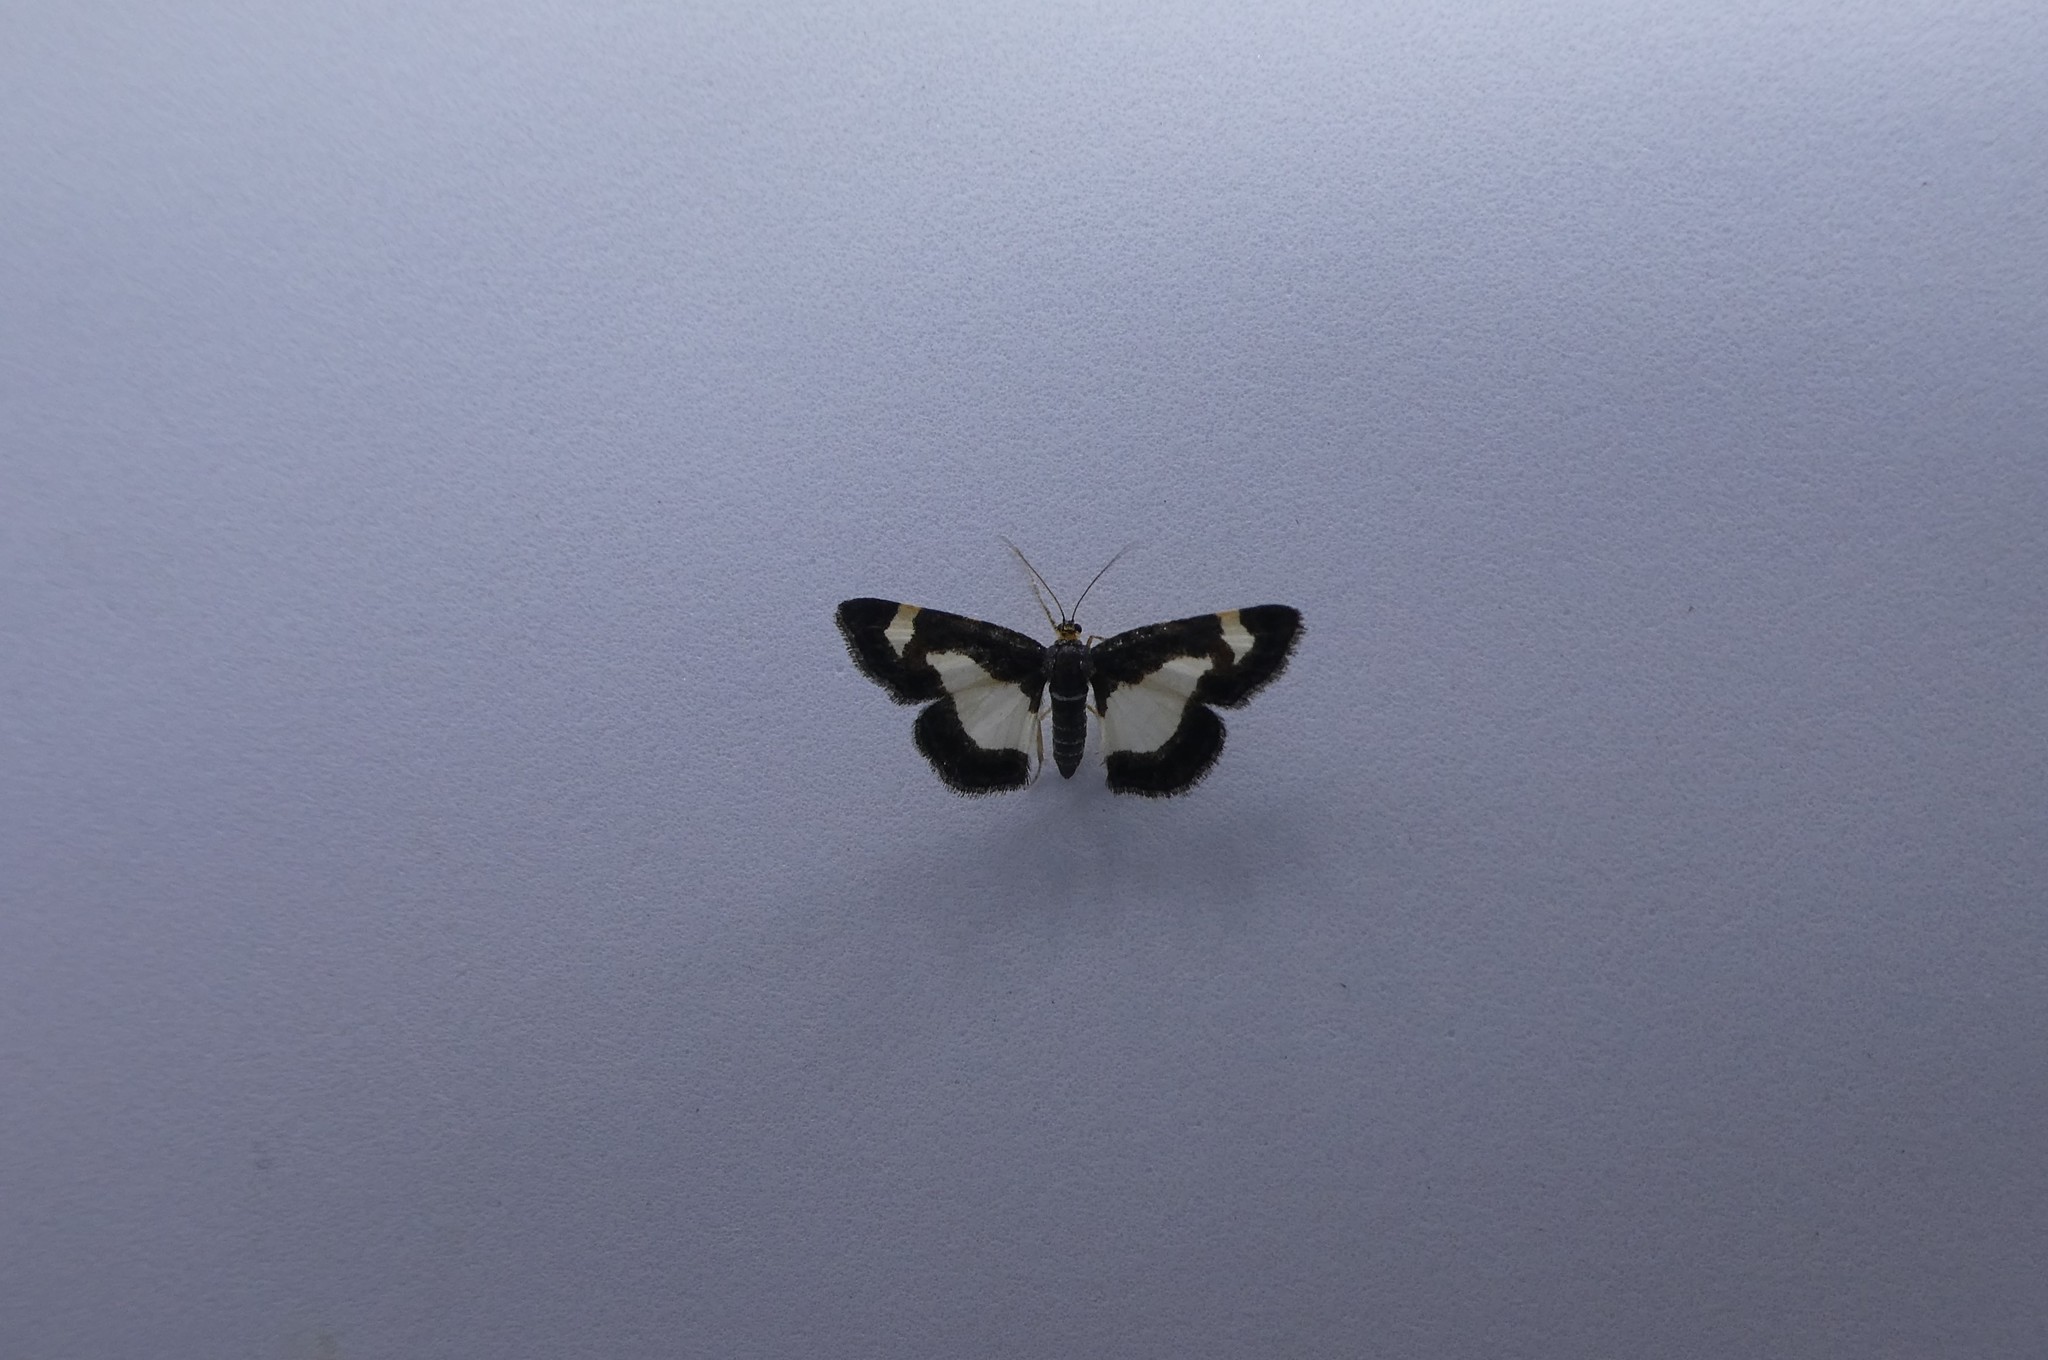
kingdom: Animalia
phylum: Arthropoda
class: Insecta
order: Lepidoptera
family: Geometridae
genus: Heliomata
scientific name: Heliomata cycladata
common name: Common spring moth
